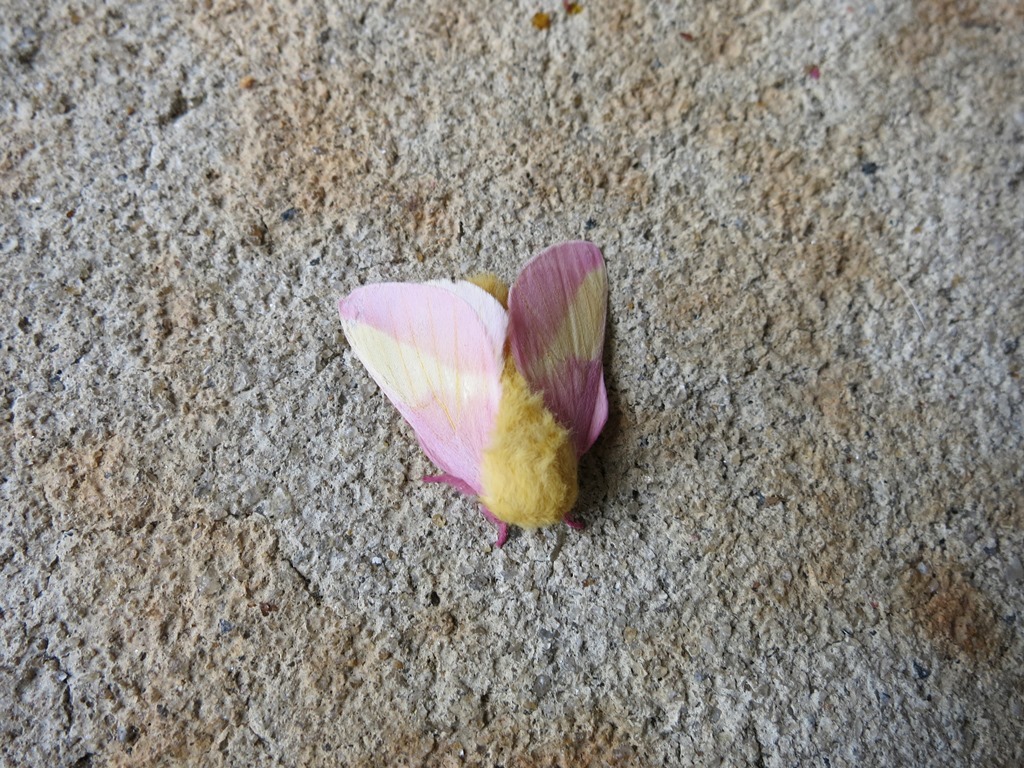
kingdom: Animalia
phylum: Arthropoda
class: Insecta
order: Lepidoptera
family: Saturniidae
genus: Dryocampa
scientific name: Dryocampa rubicunda
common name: Rosy maple moth
